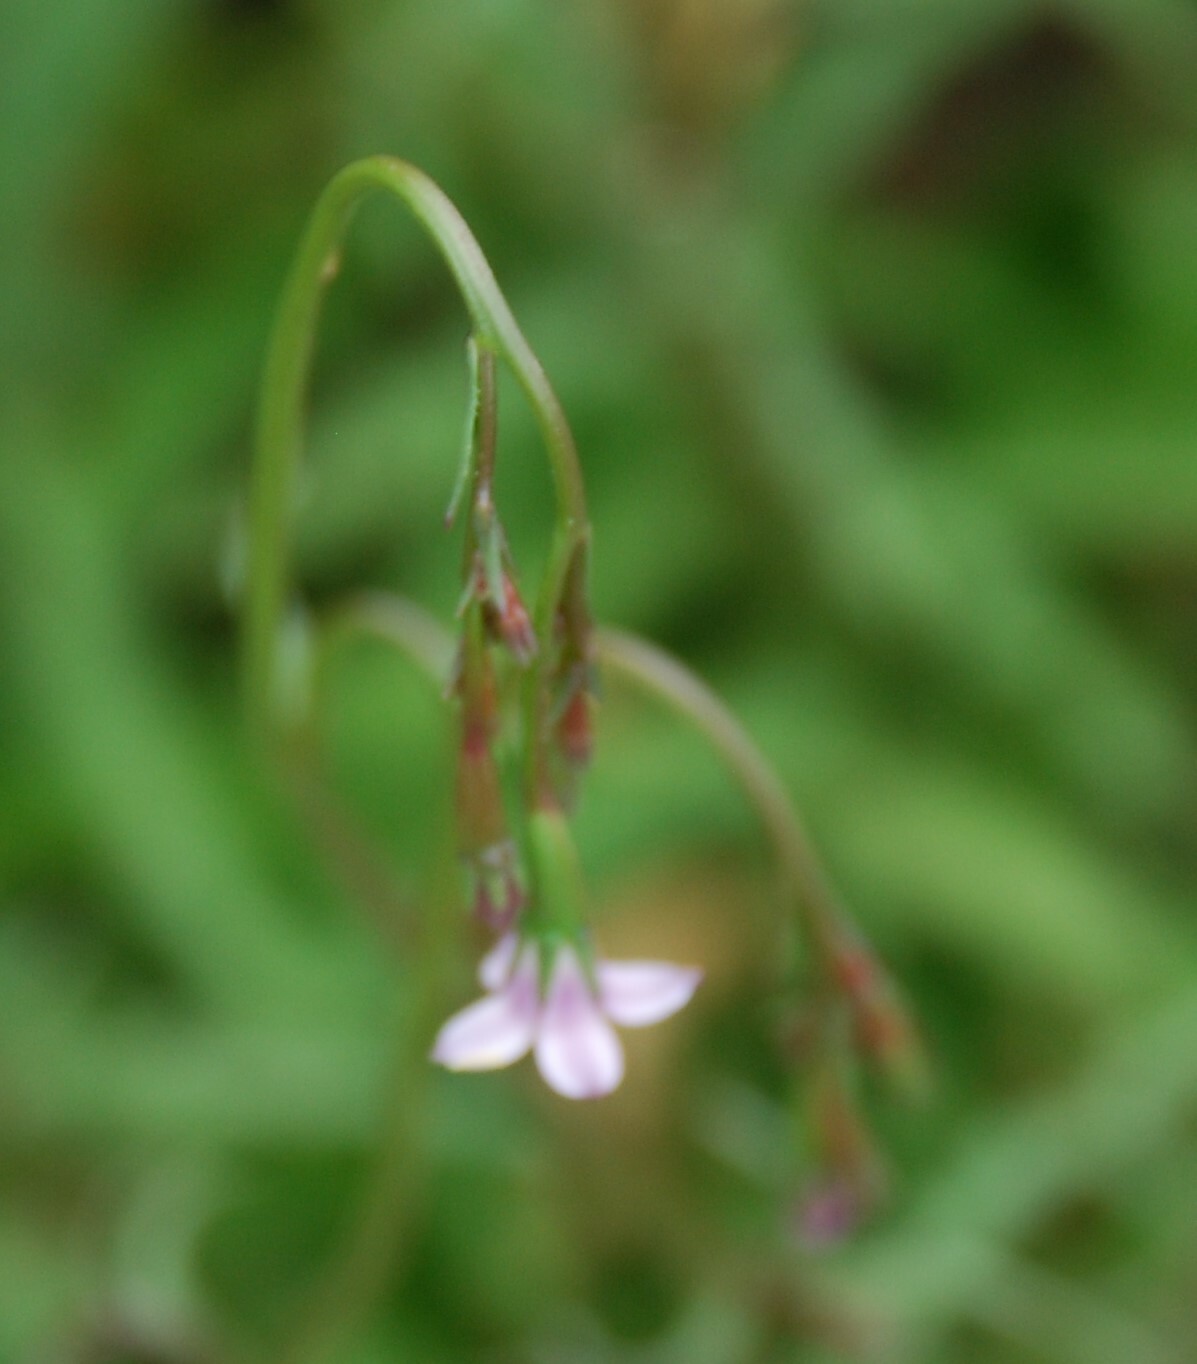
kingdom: Plantae
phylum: Tracheophyta
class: Magnoliopsida
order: Asterales
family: Campanulaceae
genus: Wahlenbergia
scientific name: Wahlenbergia lobelioides
